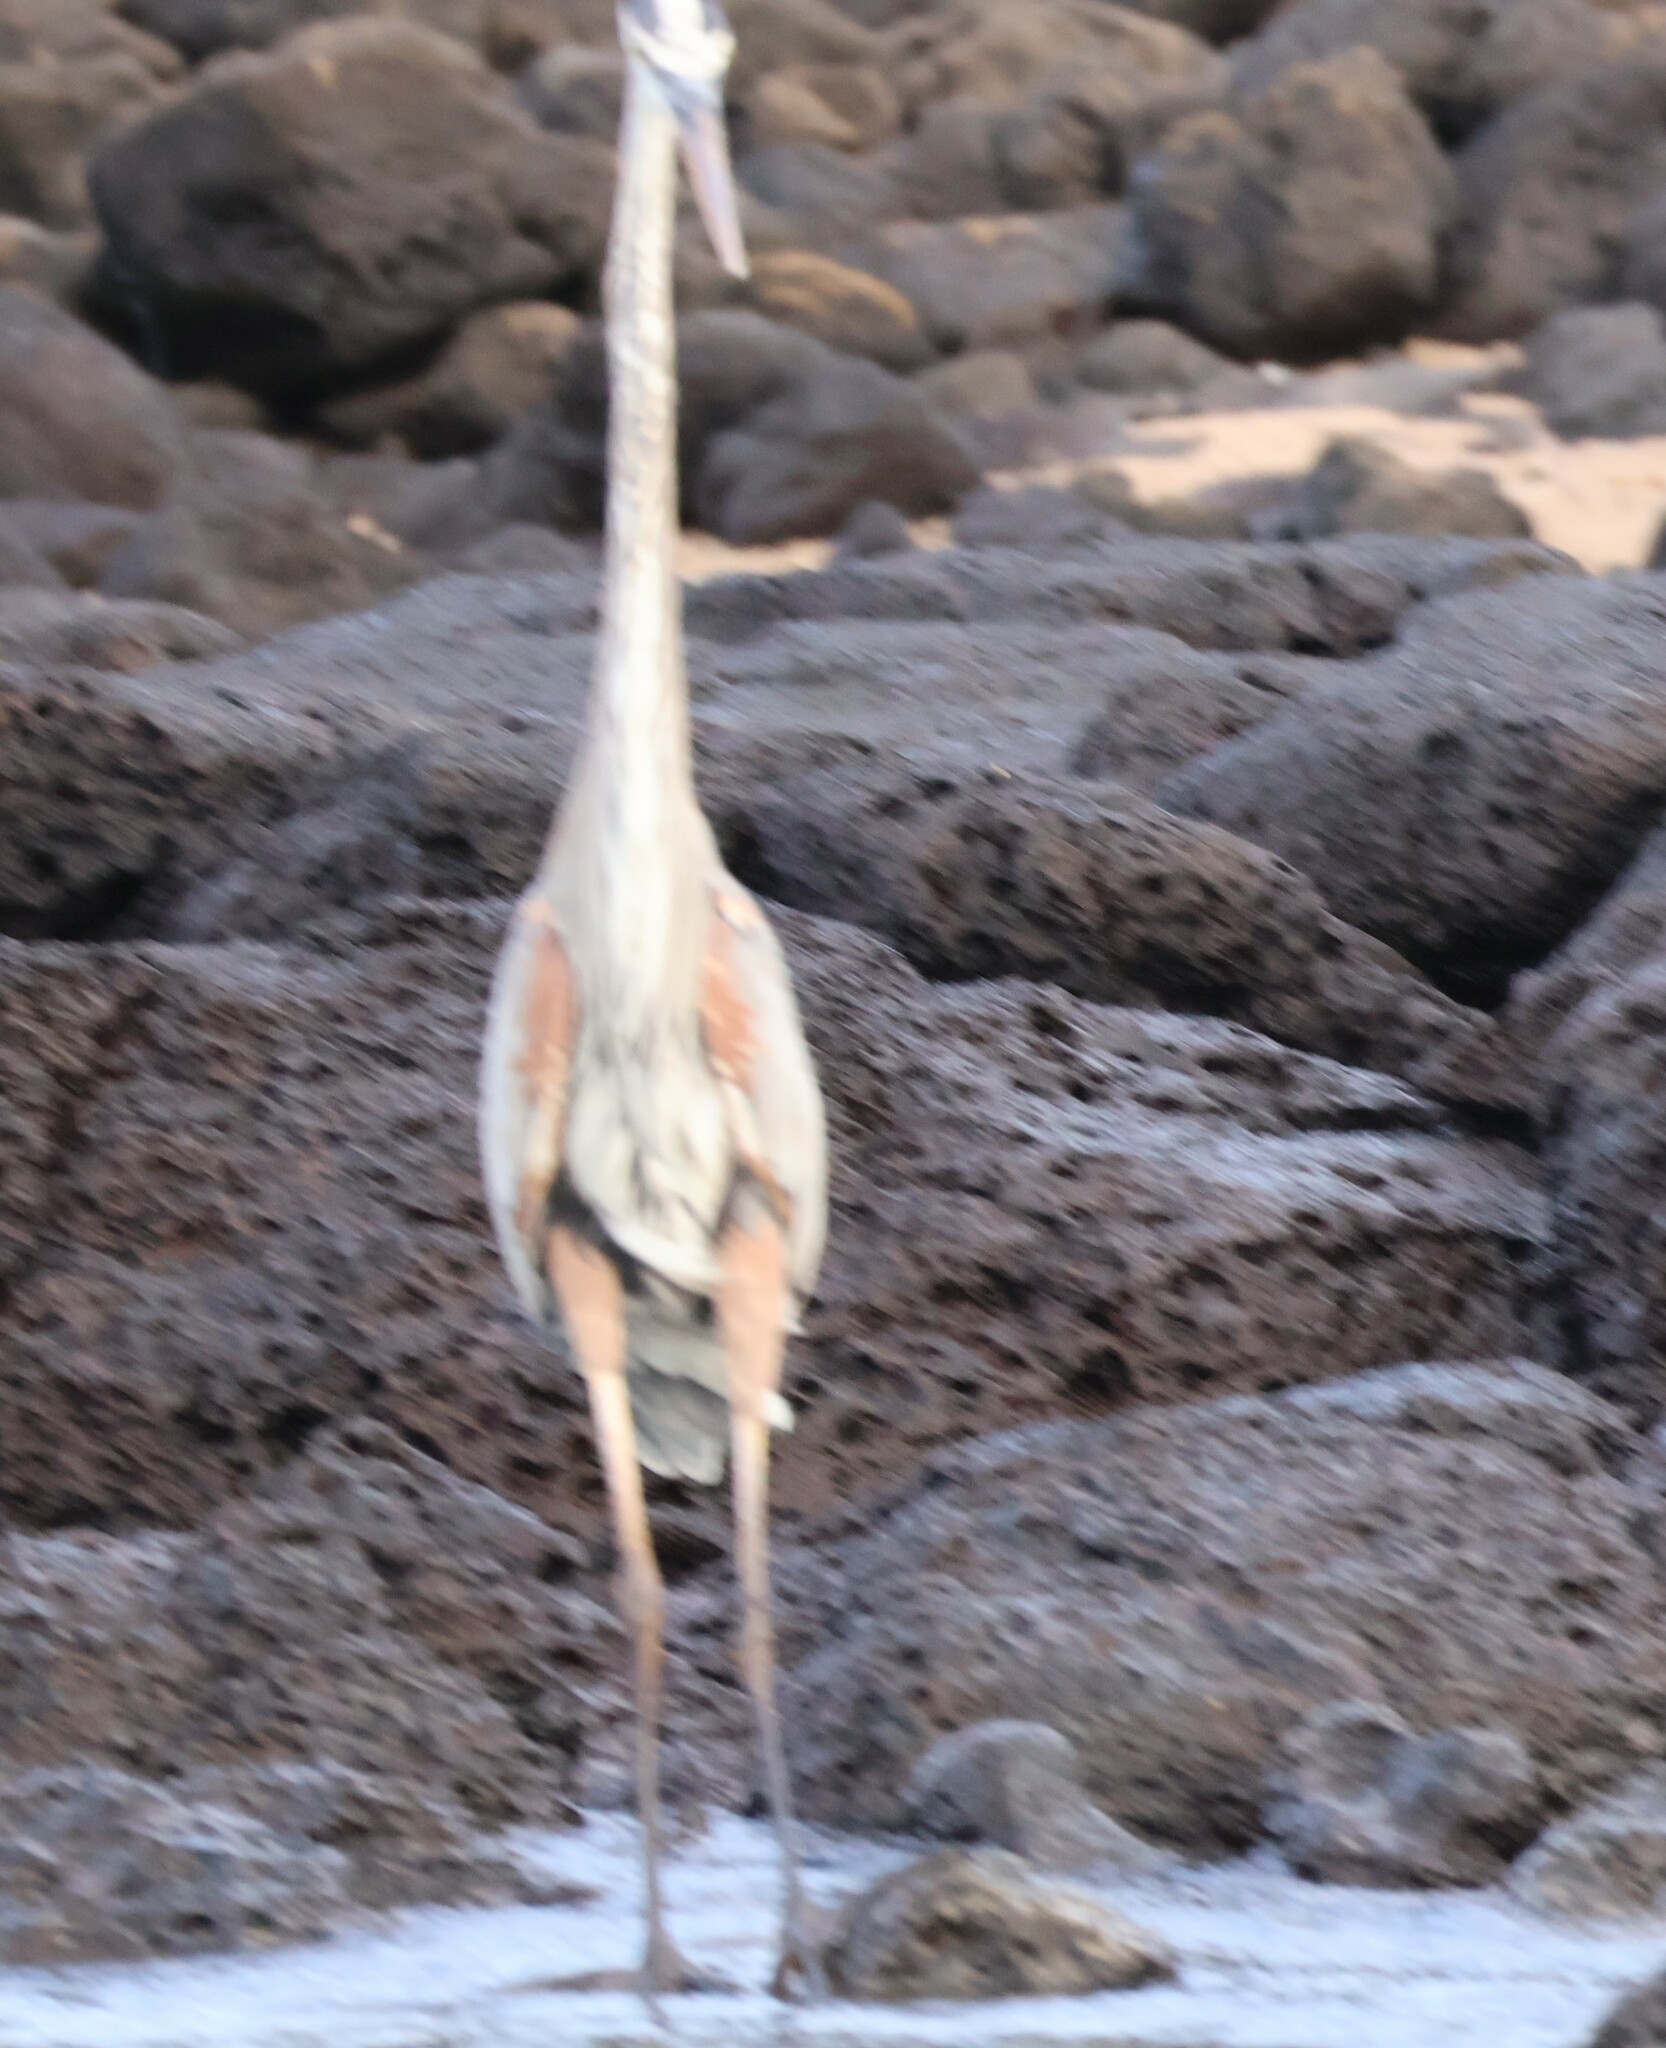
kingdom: Animalia
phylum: Chordata
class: Aves
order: Pelecaniformes
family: Ardeidae
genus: Ardea
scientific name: Ardea herodias
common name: Great blue heron
